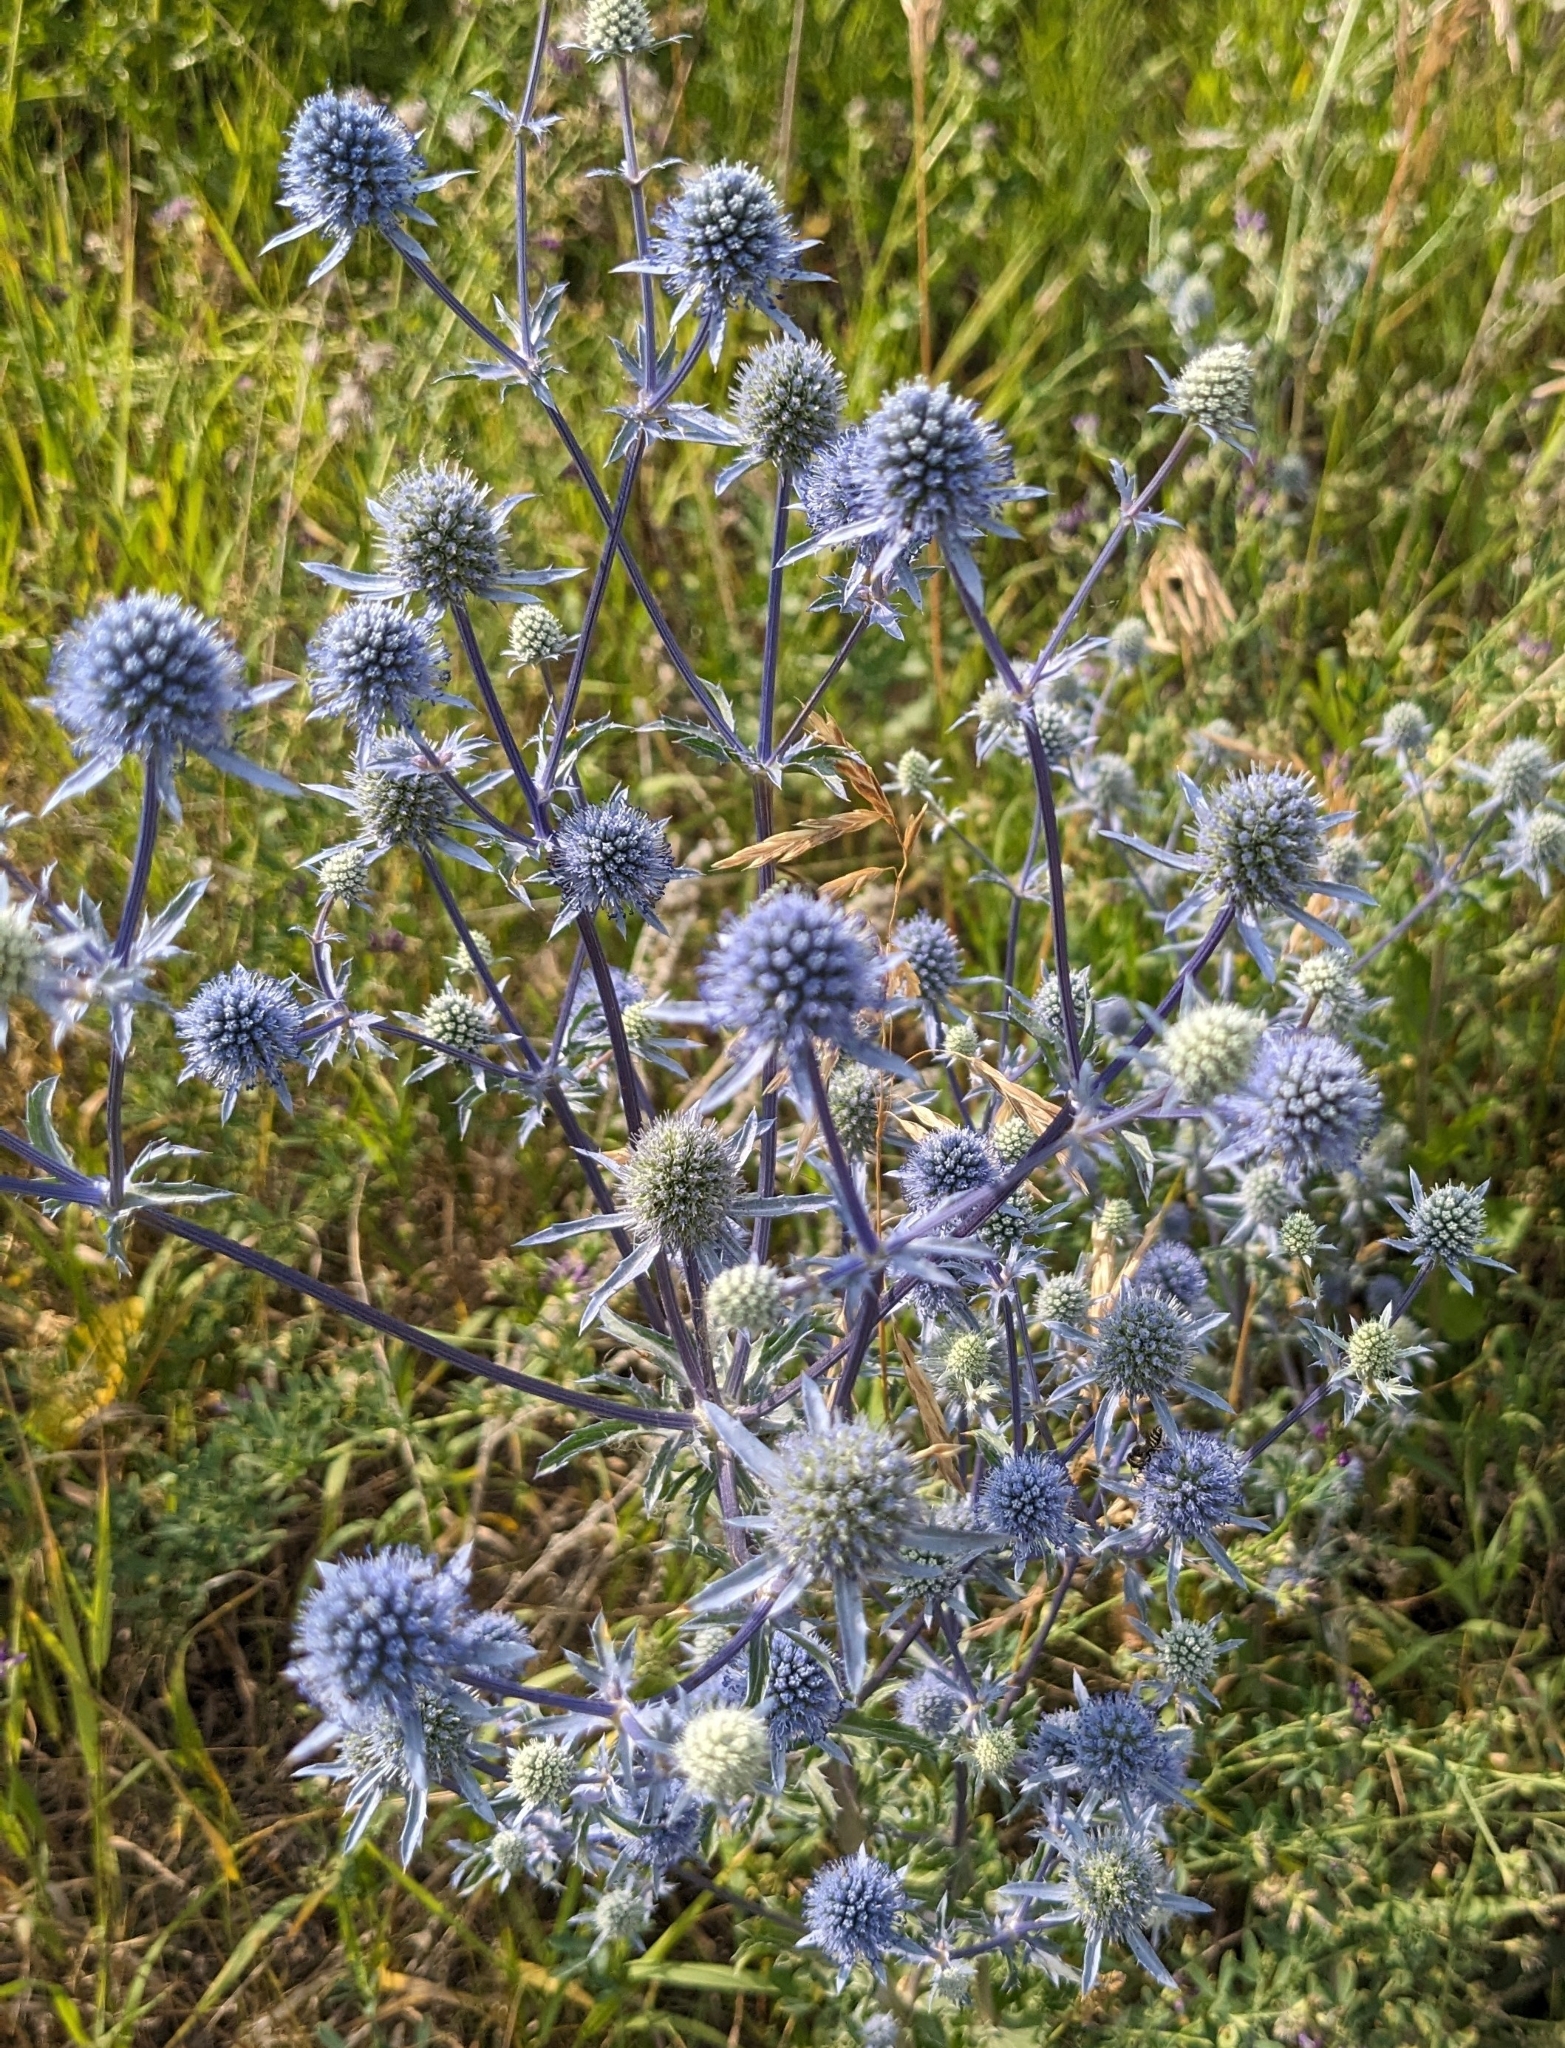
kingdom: Plantae
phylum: Tracheophyta
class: Magnoliopsida
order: Apiales
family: Apiaceae
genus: Eryngium
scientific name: Eryngium planum
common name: Blue eryngo
